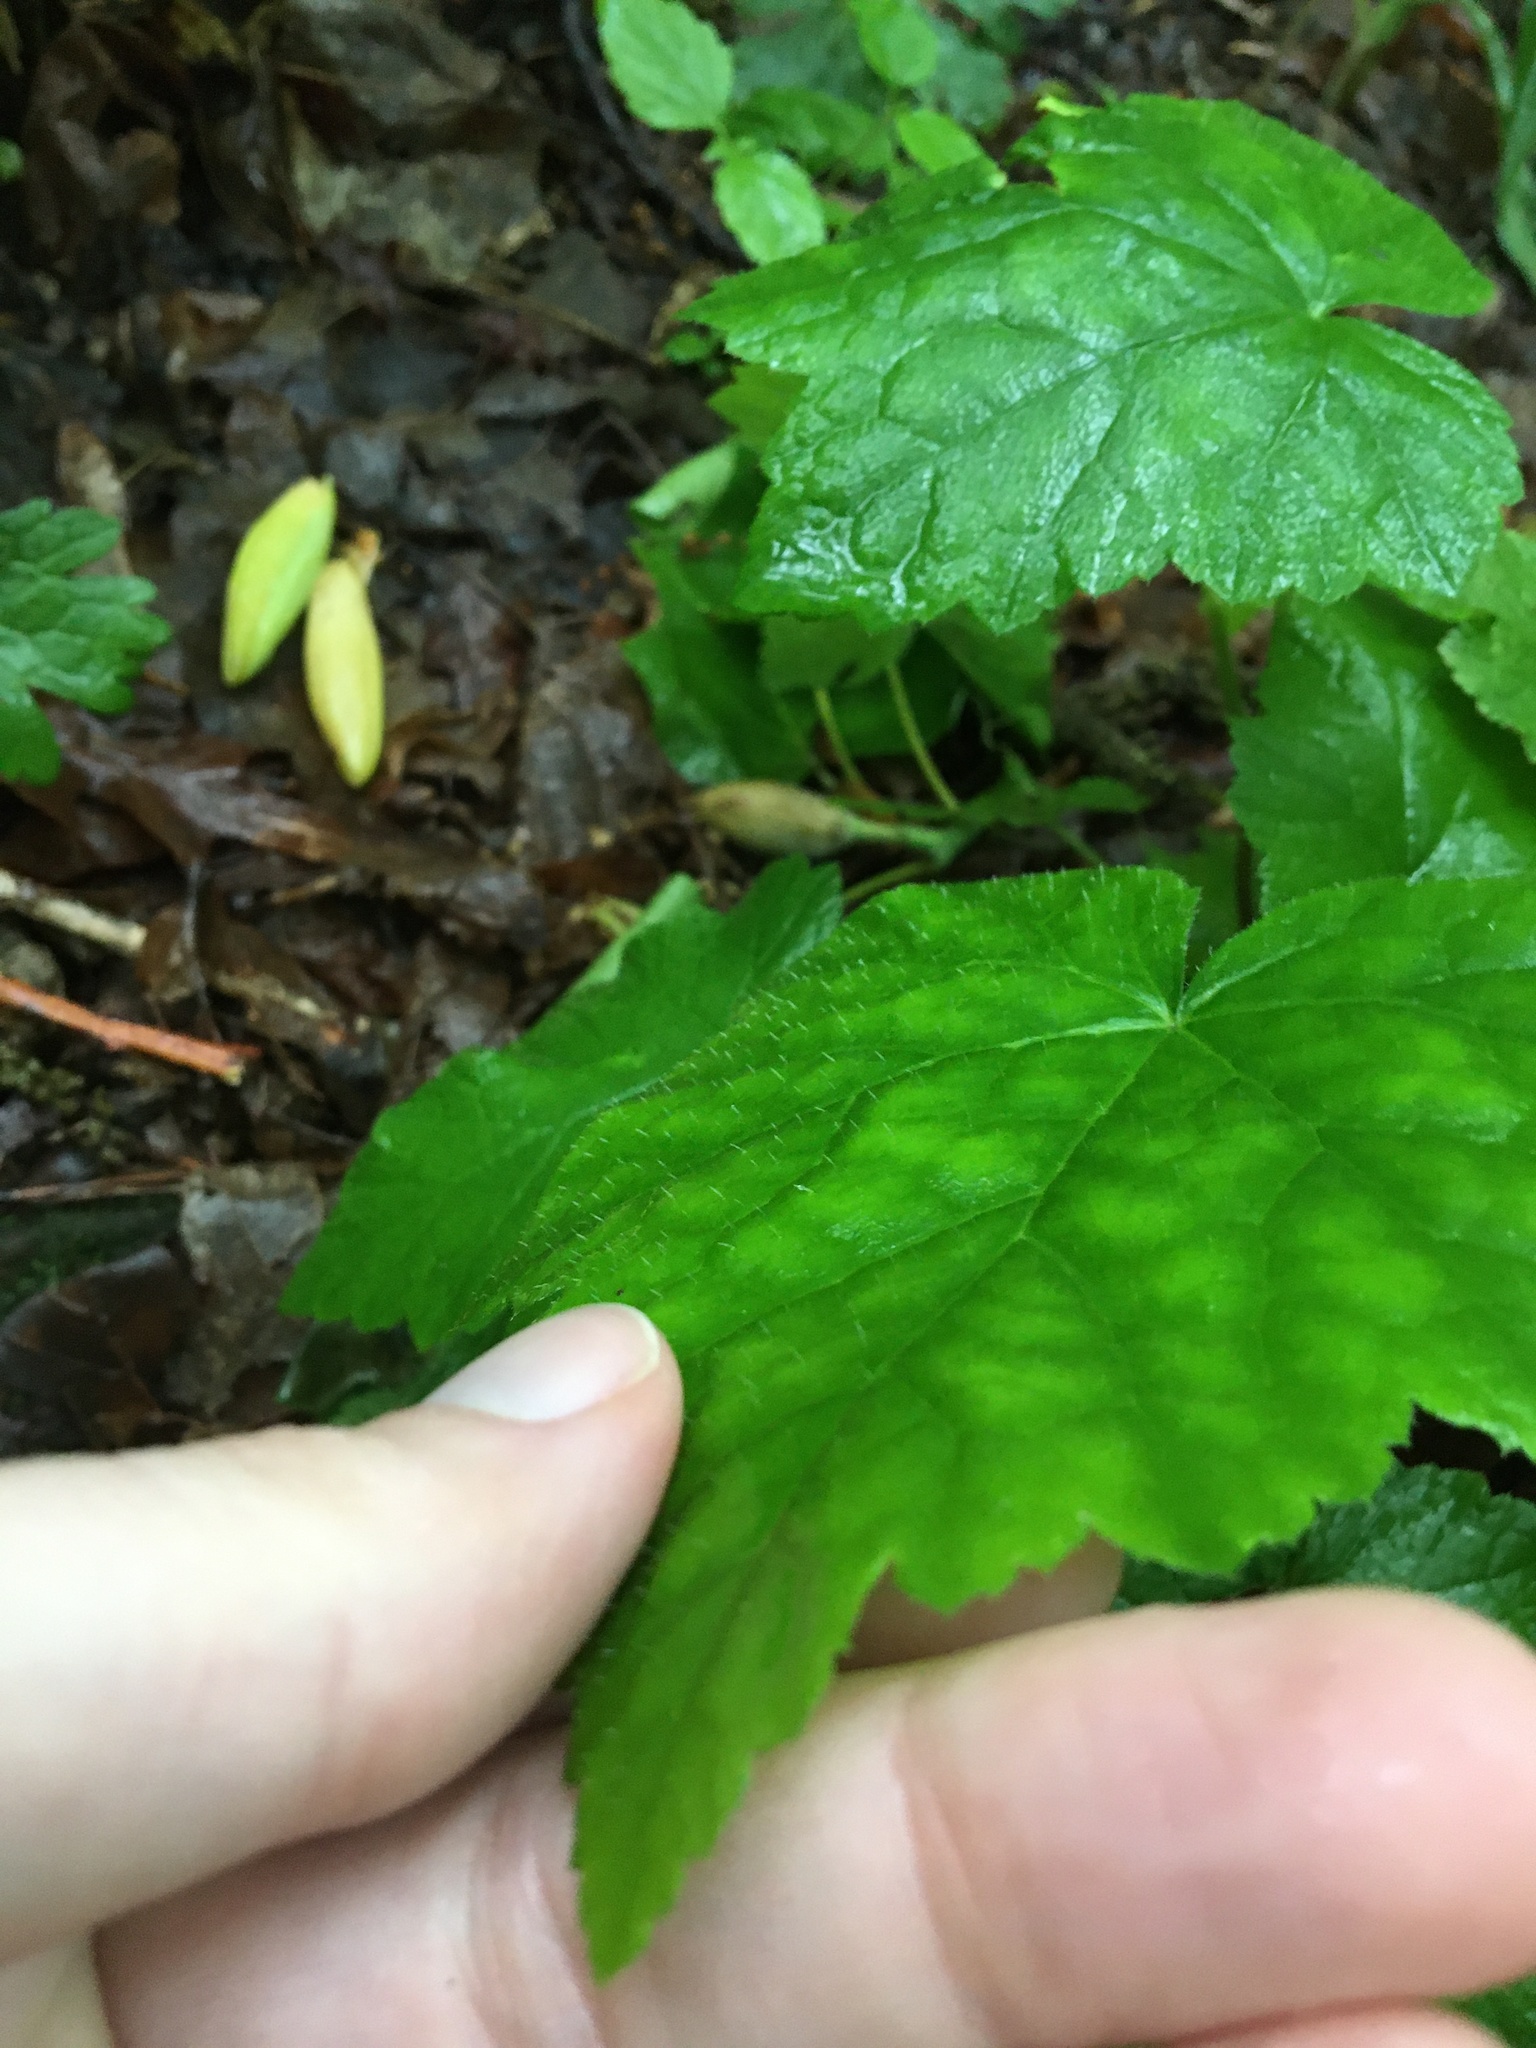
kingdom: Plantae
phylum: Tracheophyta
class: Magnoliopsida
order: Saxifragales
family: Saxifragaceae
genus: Tiarella
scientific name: Tiarella wherryi
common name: Tufted foamflower
